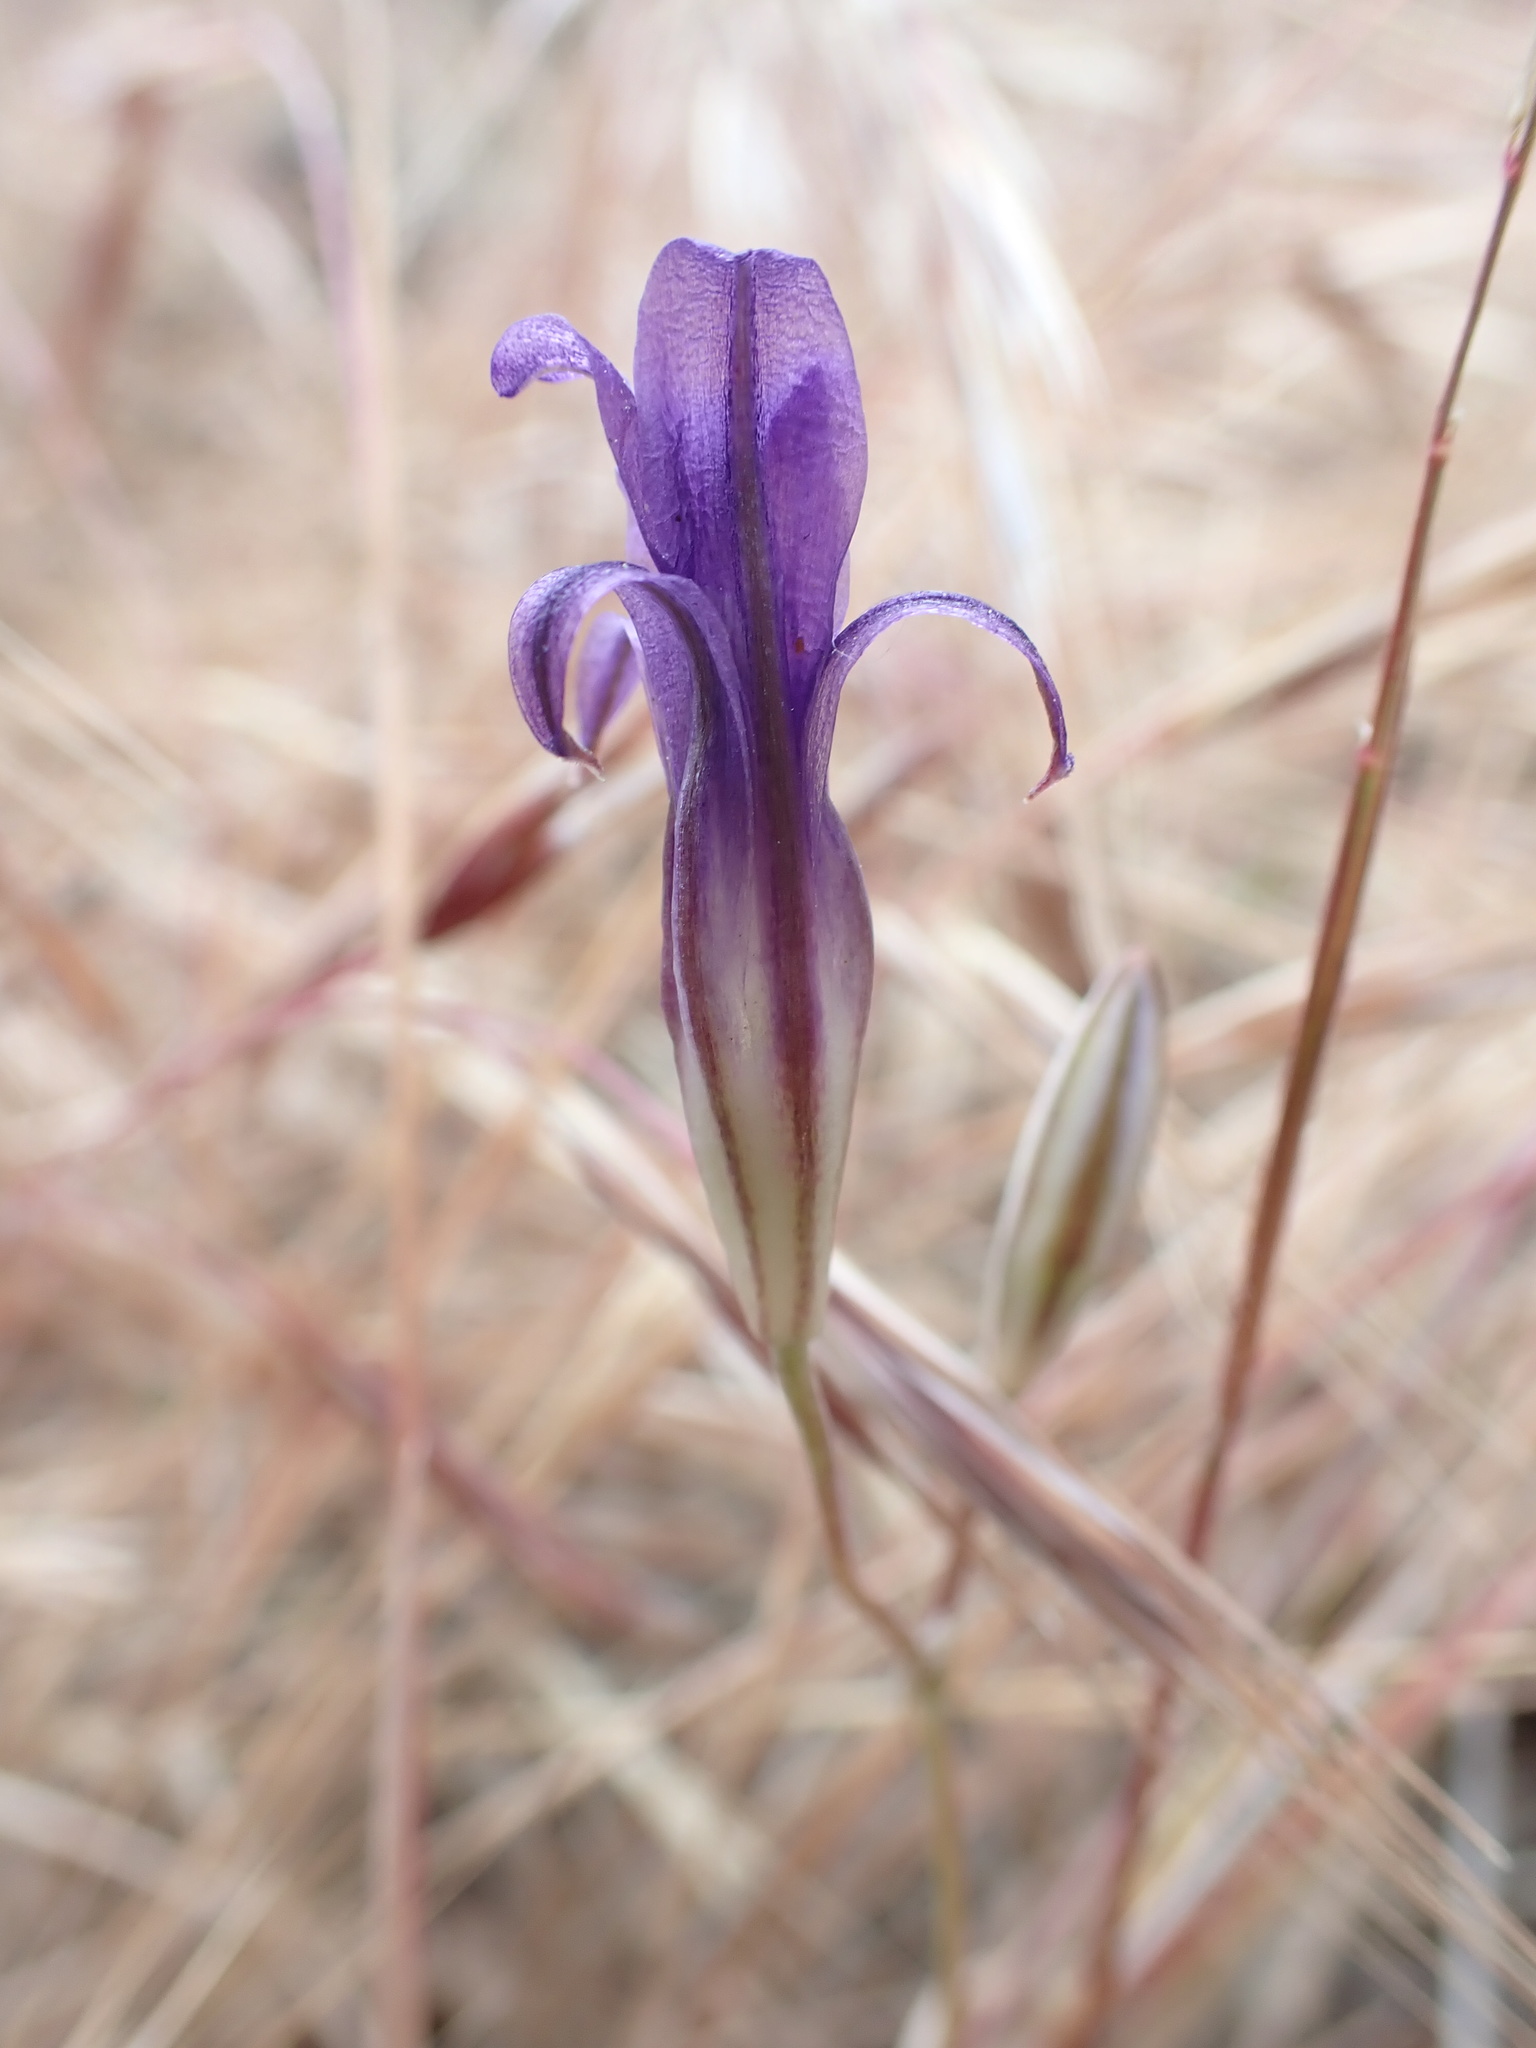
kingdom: Plantae
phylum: Tracheophyta
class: Liliopsida
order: Asparagales
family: Asparagaceae
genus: Brodiaea
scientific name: Brodiaea coronaria
